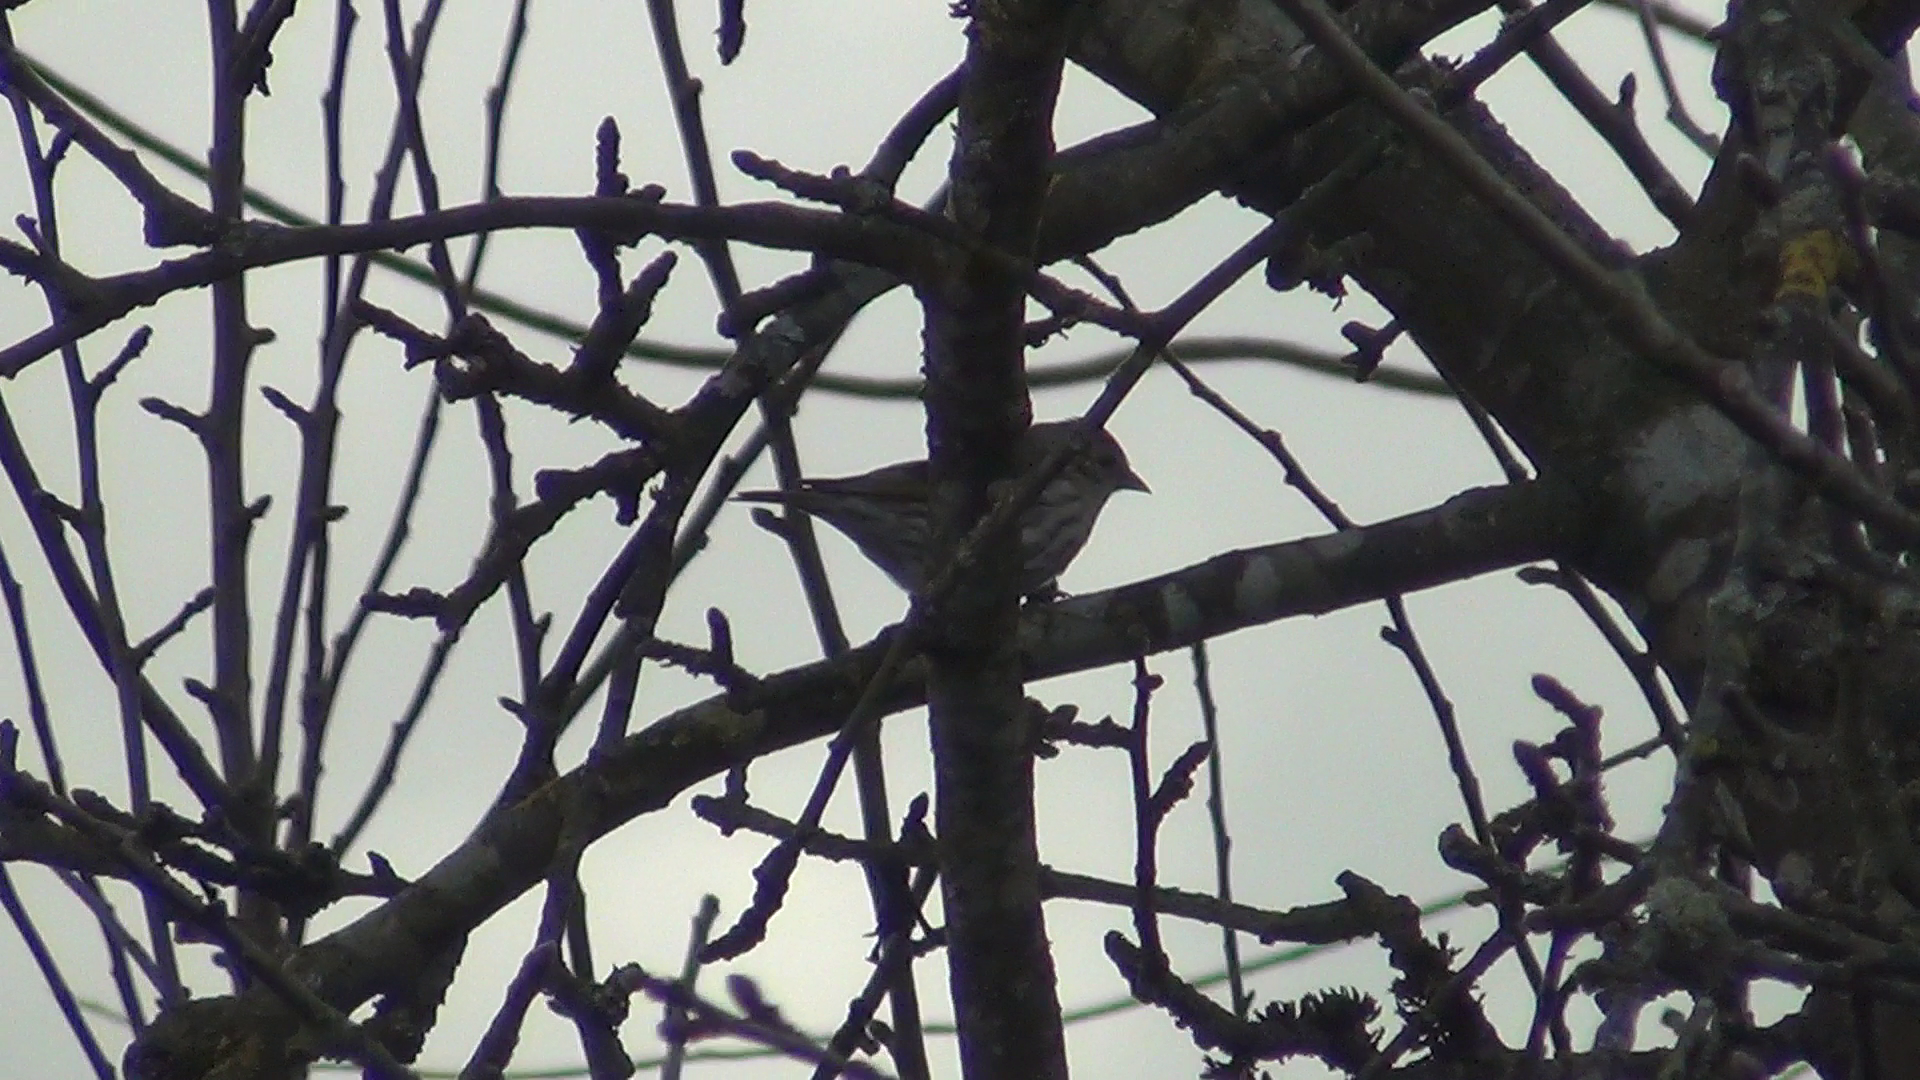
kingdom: Animalia
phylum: Chordata
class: Aves
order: Passeriformes
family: Fringillidae
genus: Spinus
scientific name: Spinus spinus
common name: Eurasian siskin
